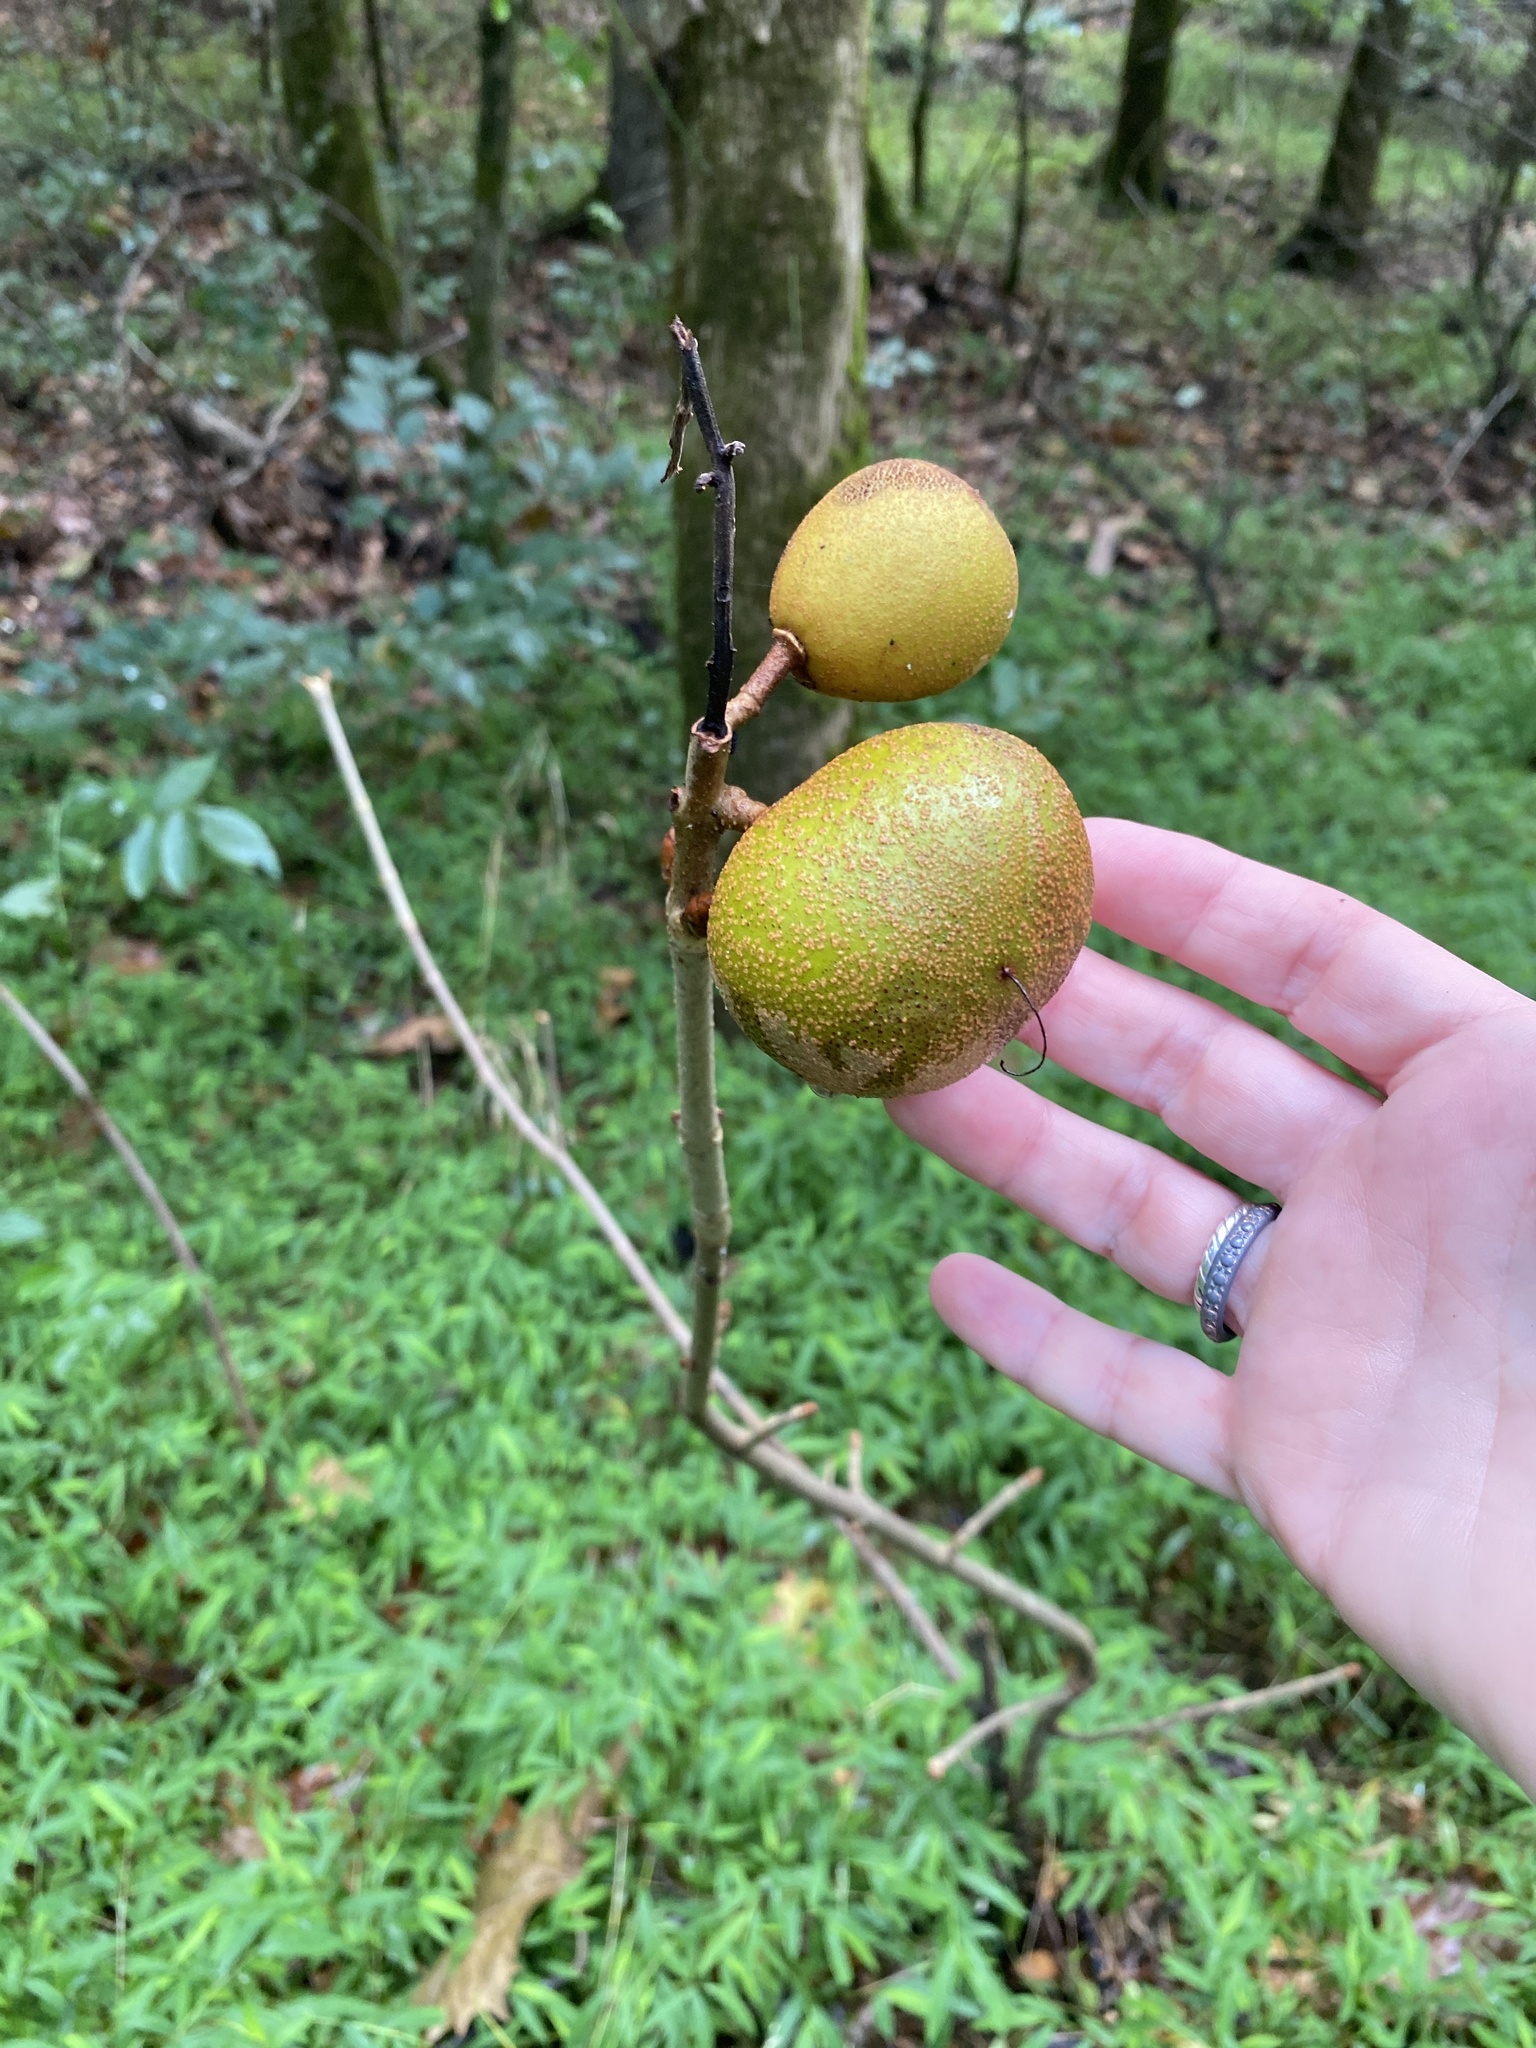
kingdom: Plantae
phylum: Tracheophyta
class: Magnoliopsida
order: Sapindales
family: Sapindaceae
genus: Aesculus
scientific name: Aesculus sylvatica
